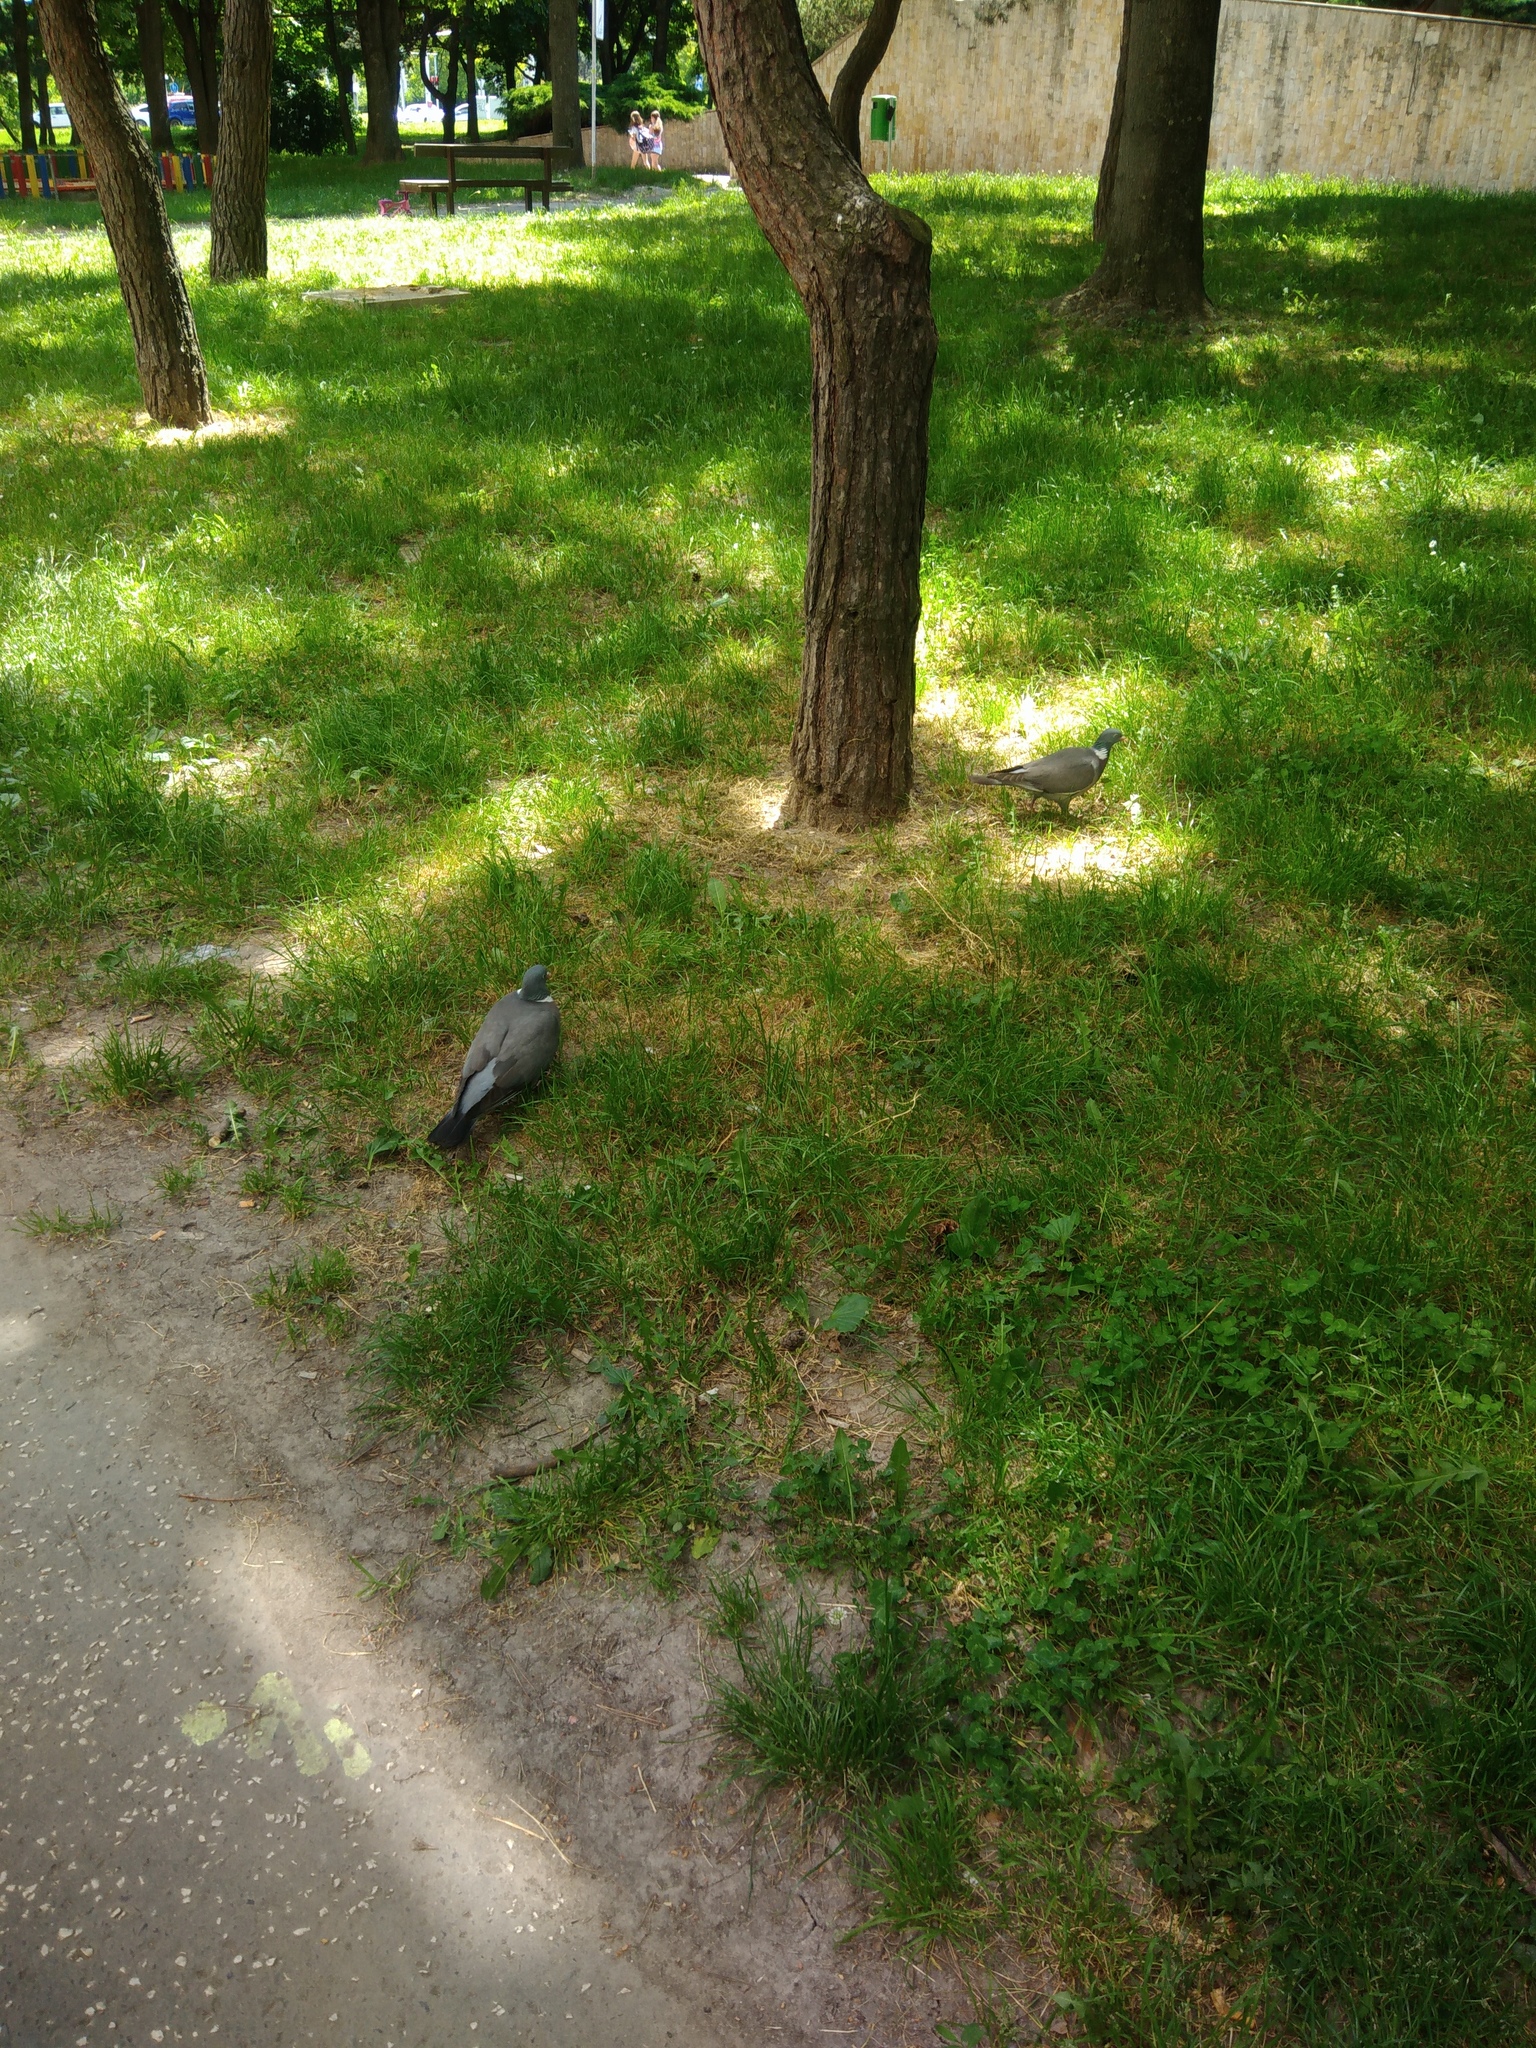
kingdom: Animalia
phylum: Chordata
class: Aves
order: Columbiformes
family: Columbidae
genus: Columba
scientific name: Columba palumbus
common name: Common wood pigeon
